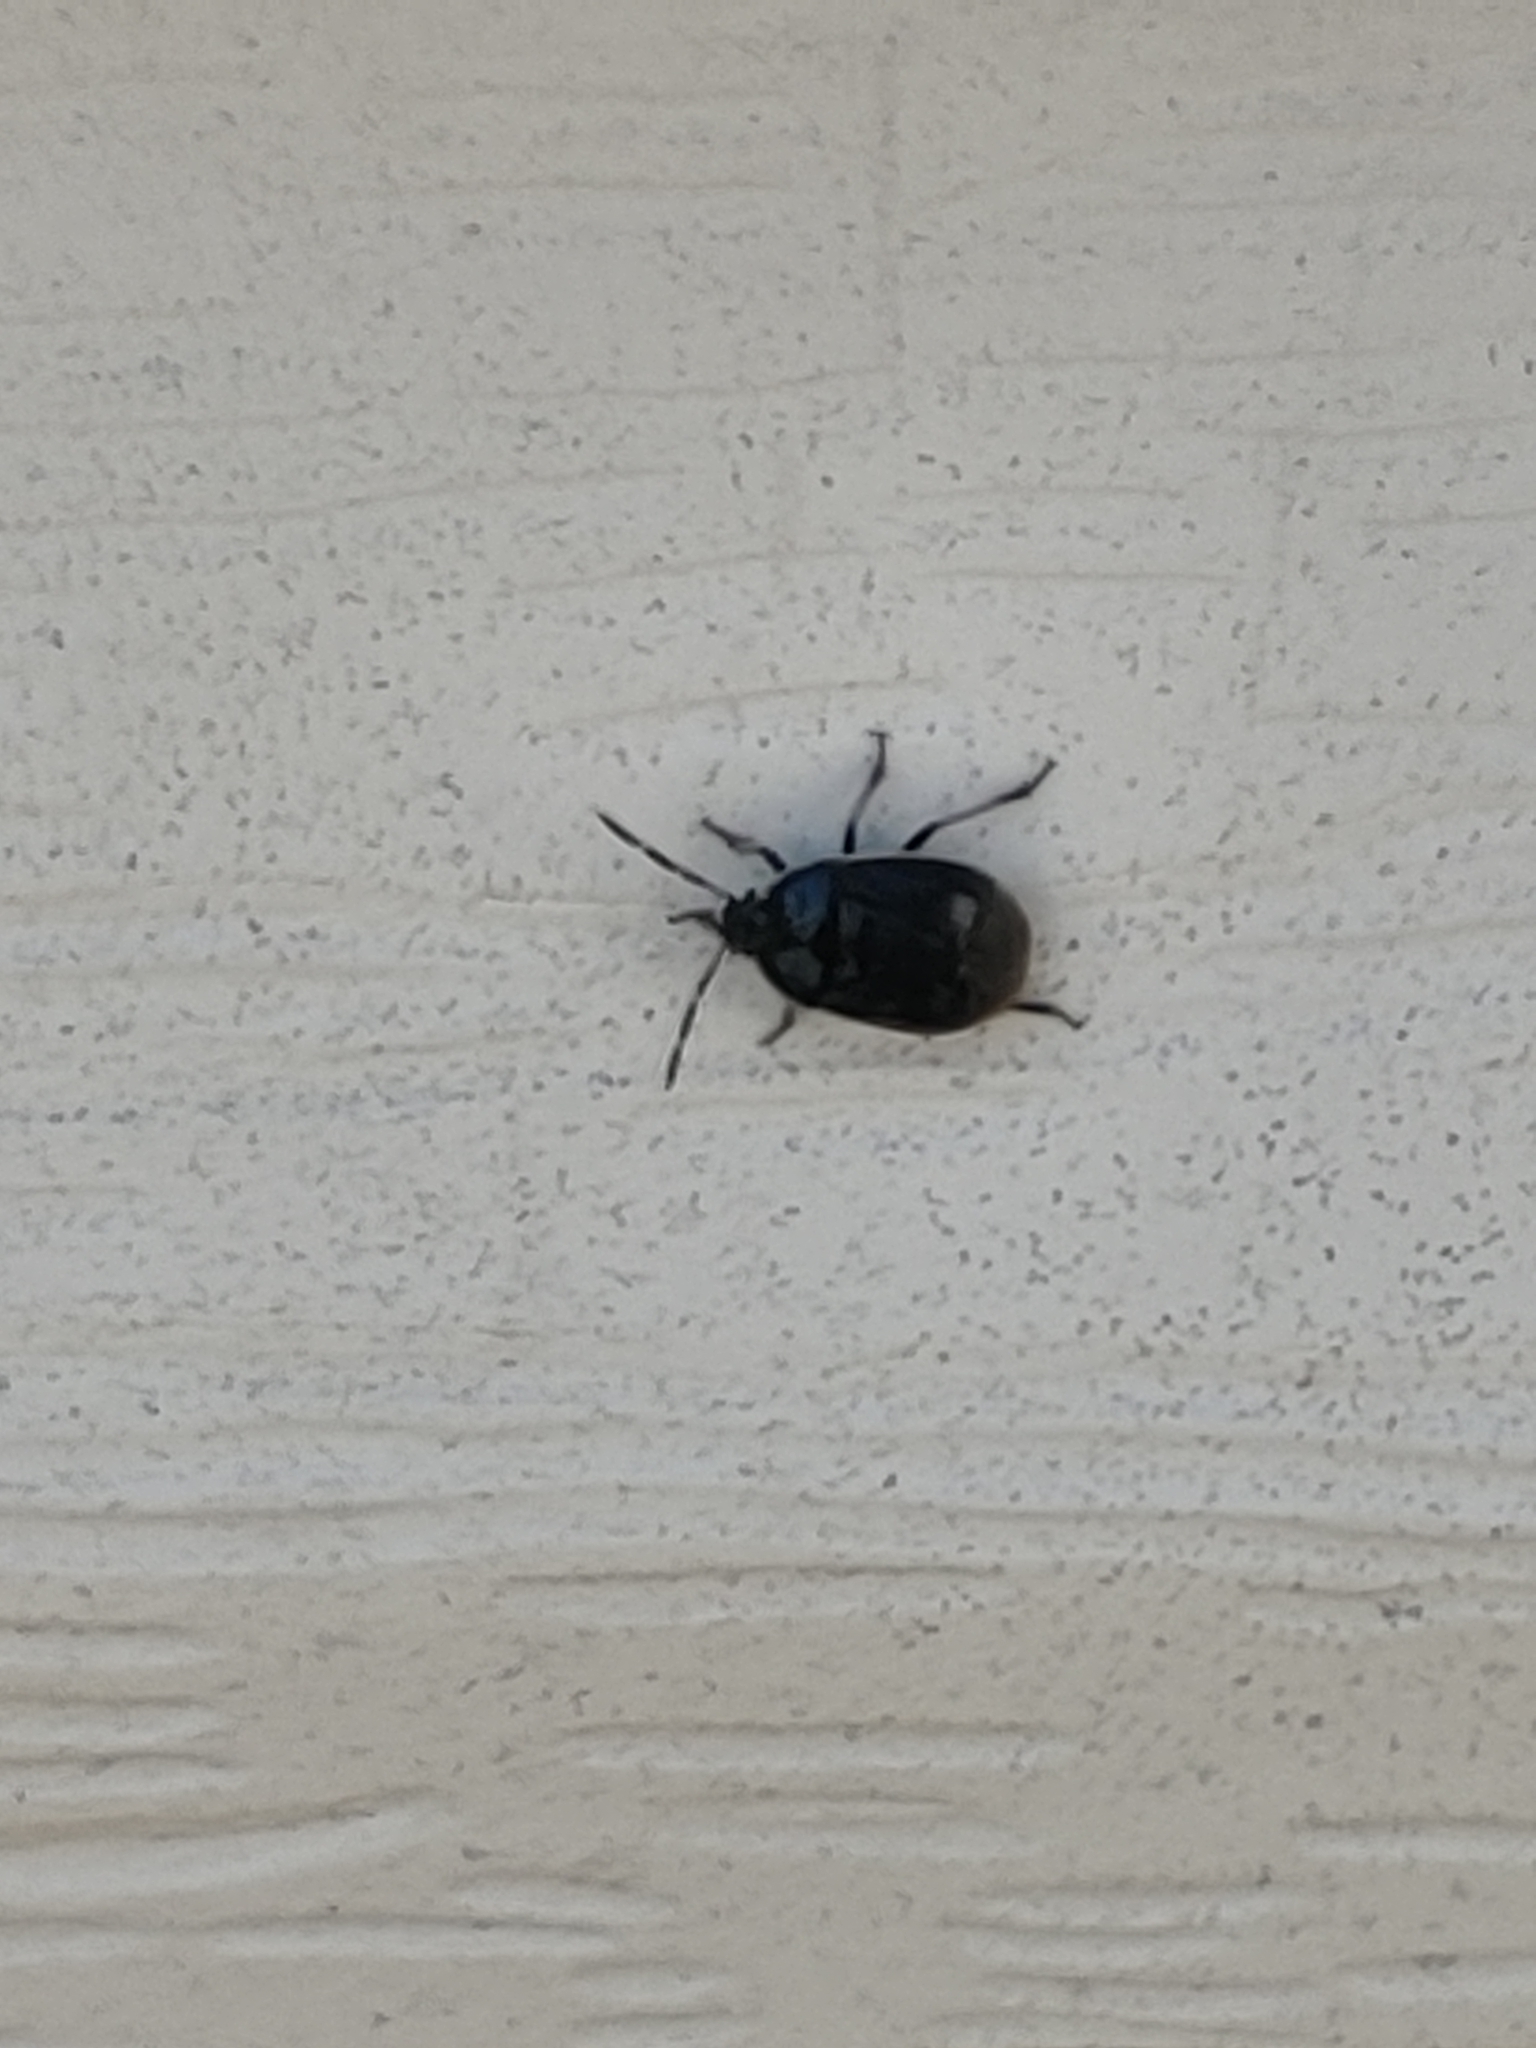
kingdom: Animalia
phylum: Arthropoda
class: Insecta
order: Hemiptera
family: Cydnidae
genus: Sehirus
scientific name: Sehirus cinctus
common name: White-margined burrower bug
